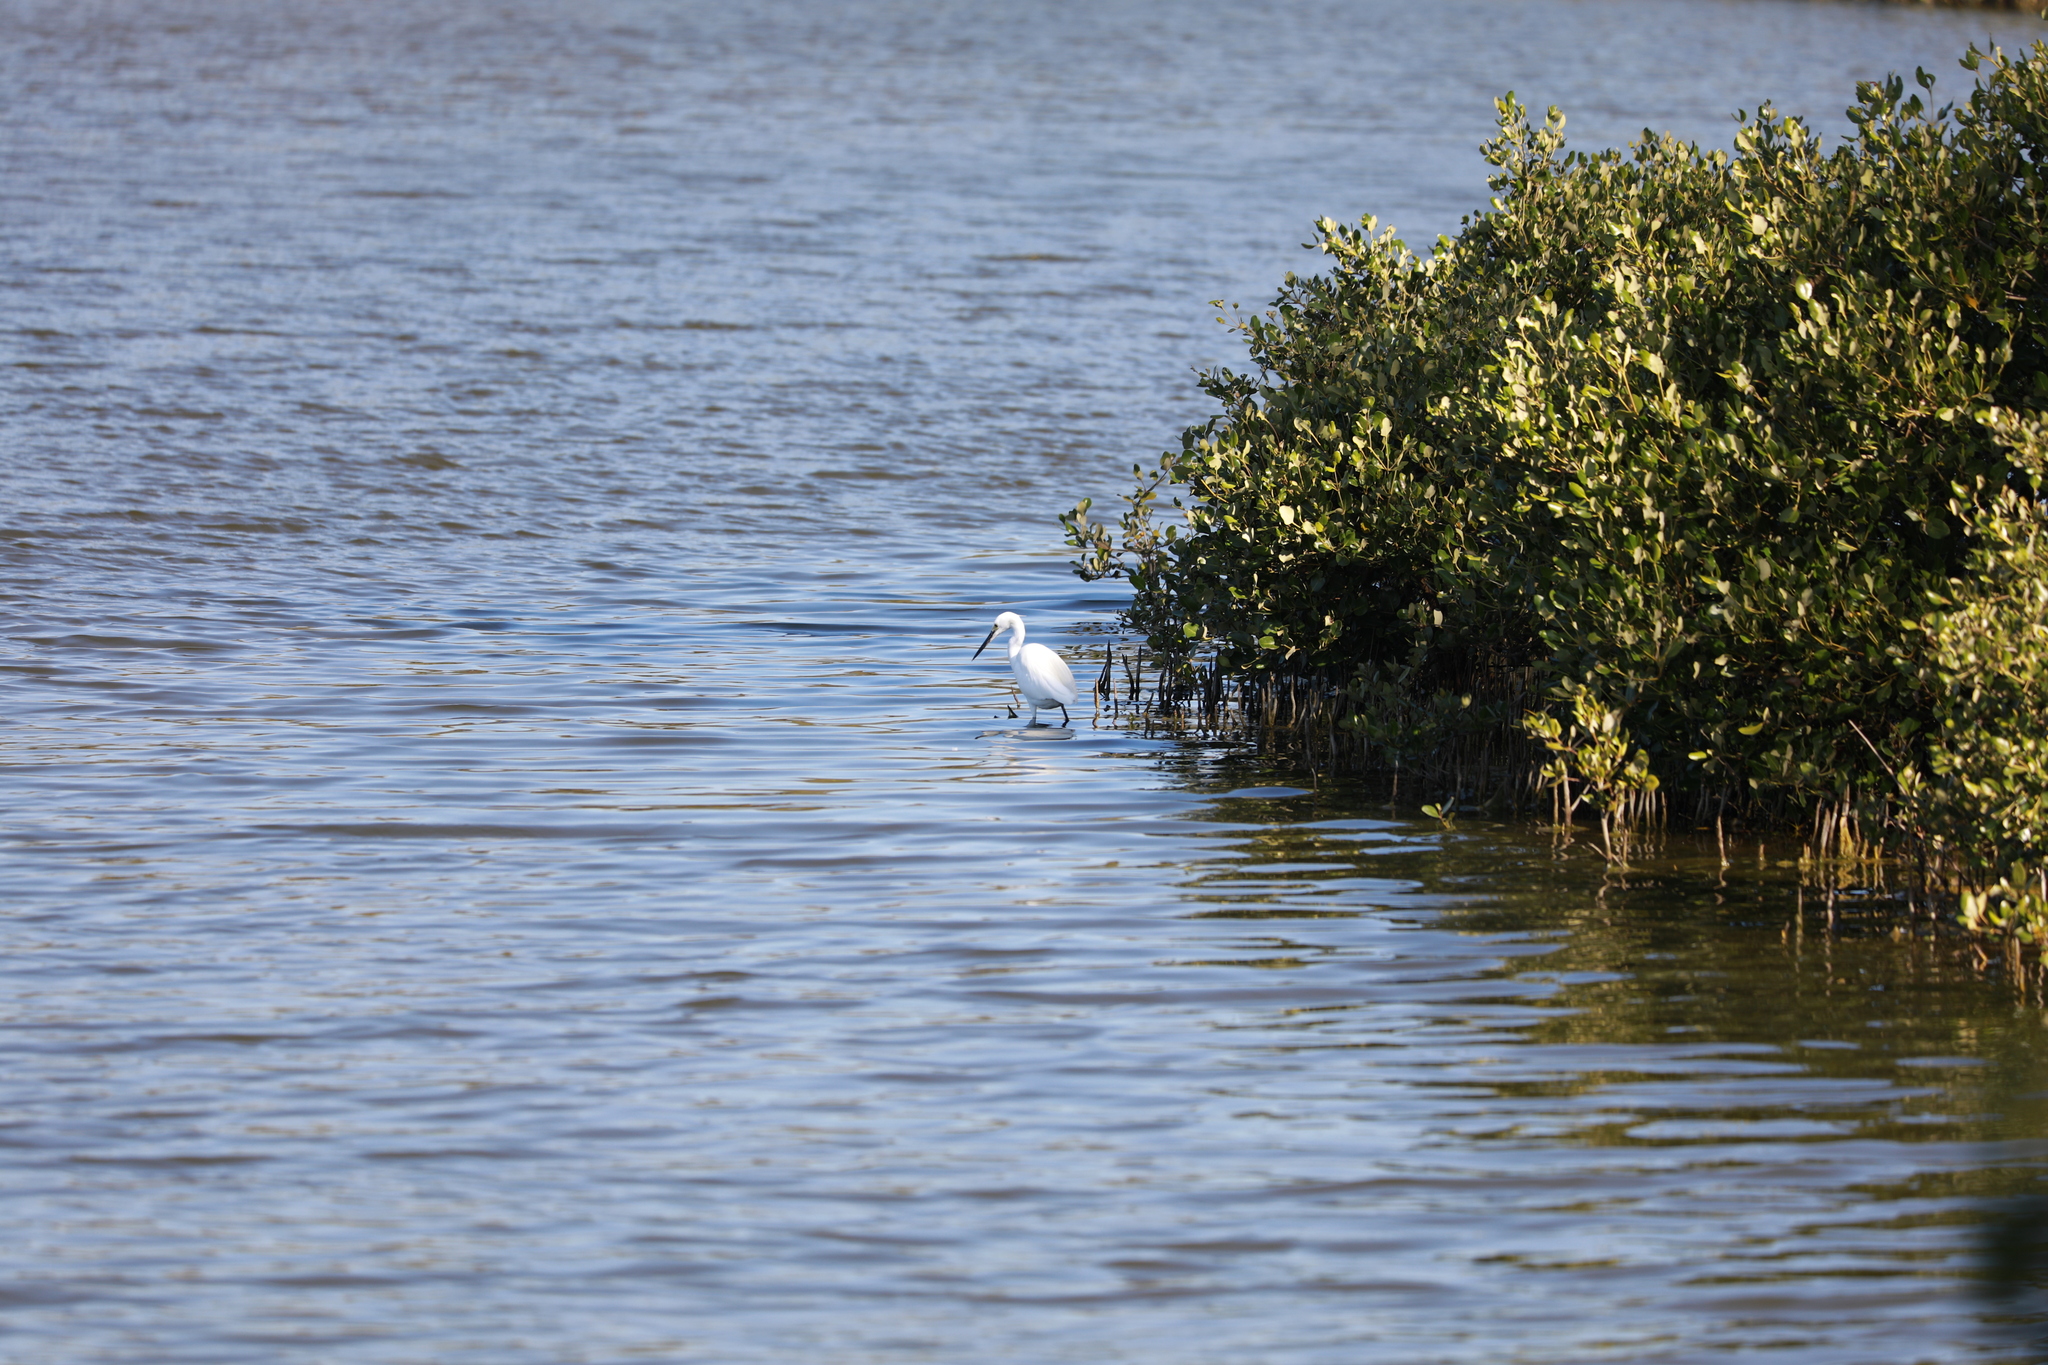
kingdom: Animalia
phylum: Chordata
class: Aves
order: Pelecaniformes
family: Ardeidae
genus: Egretta
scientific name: Egretta garzetta
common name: Little egret
